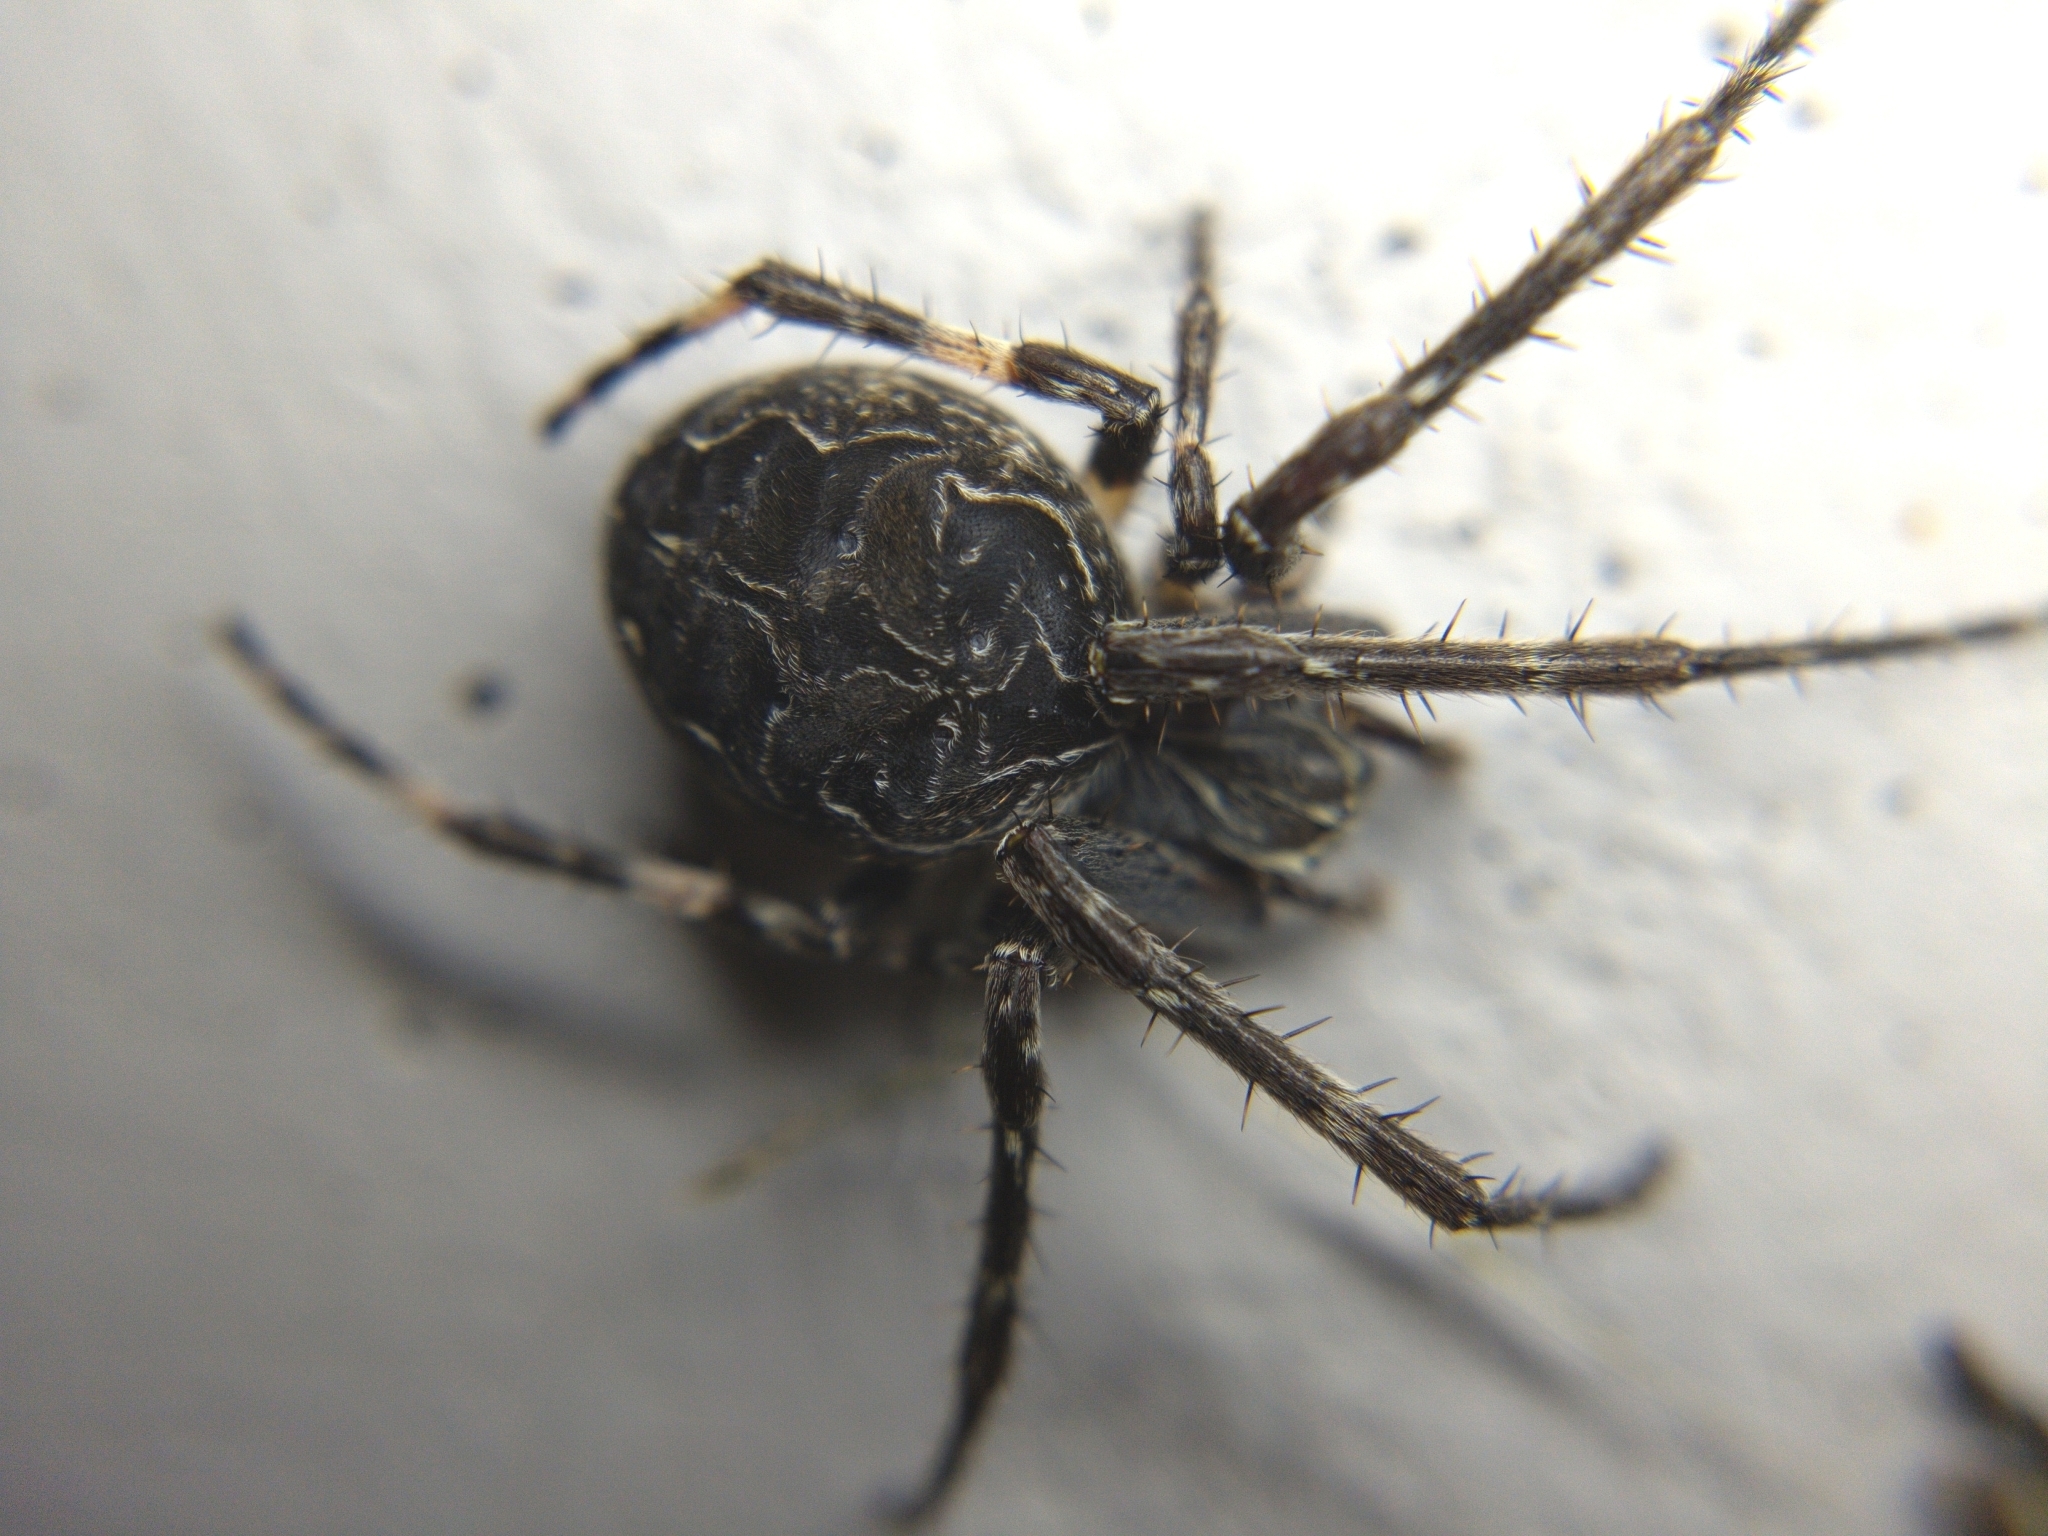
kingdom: Animalia
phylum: Arthropoda
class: Arachnida
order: Araneae
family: Araneidae
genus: Larinioides
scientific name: Larinioides sclopetarius
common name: Bridge orbweaver
